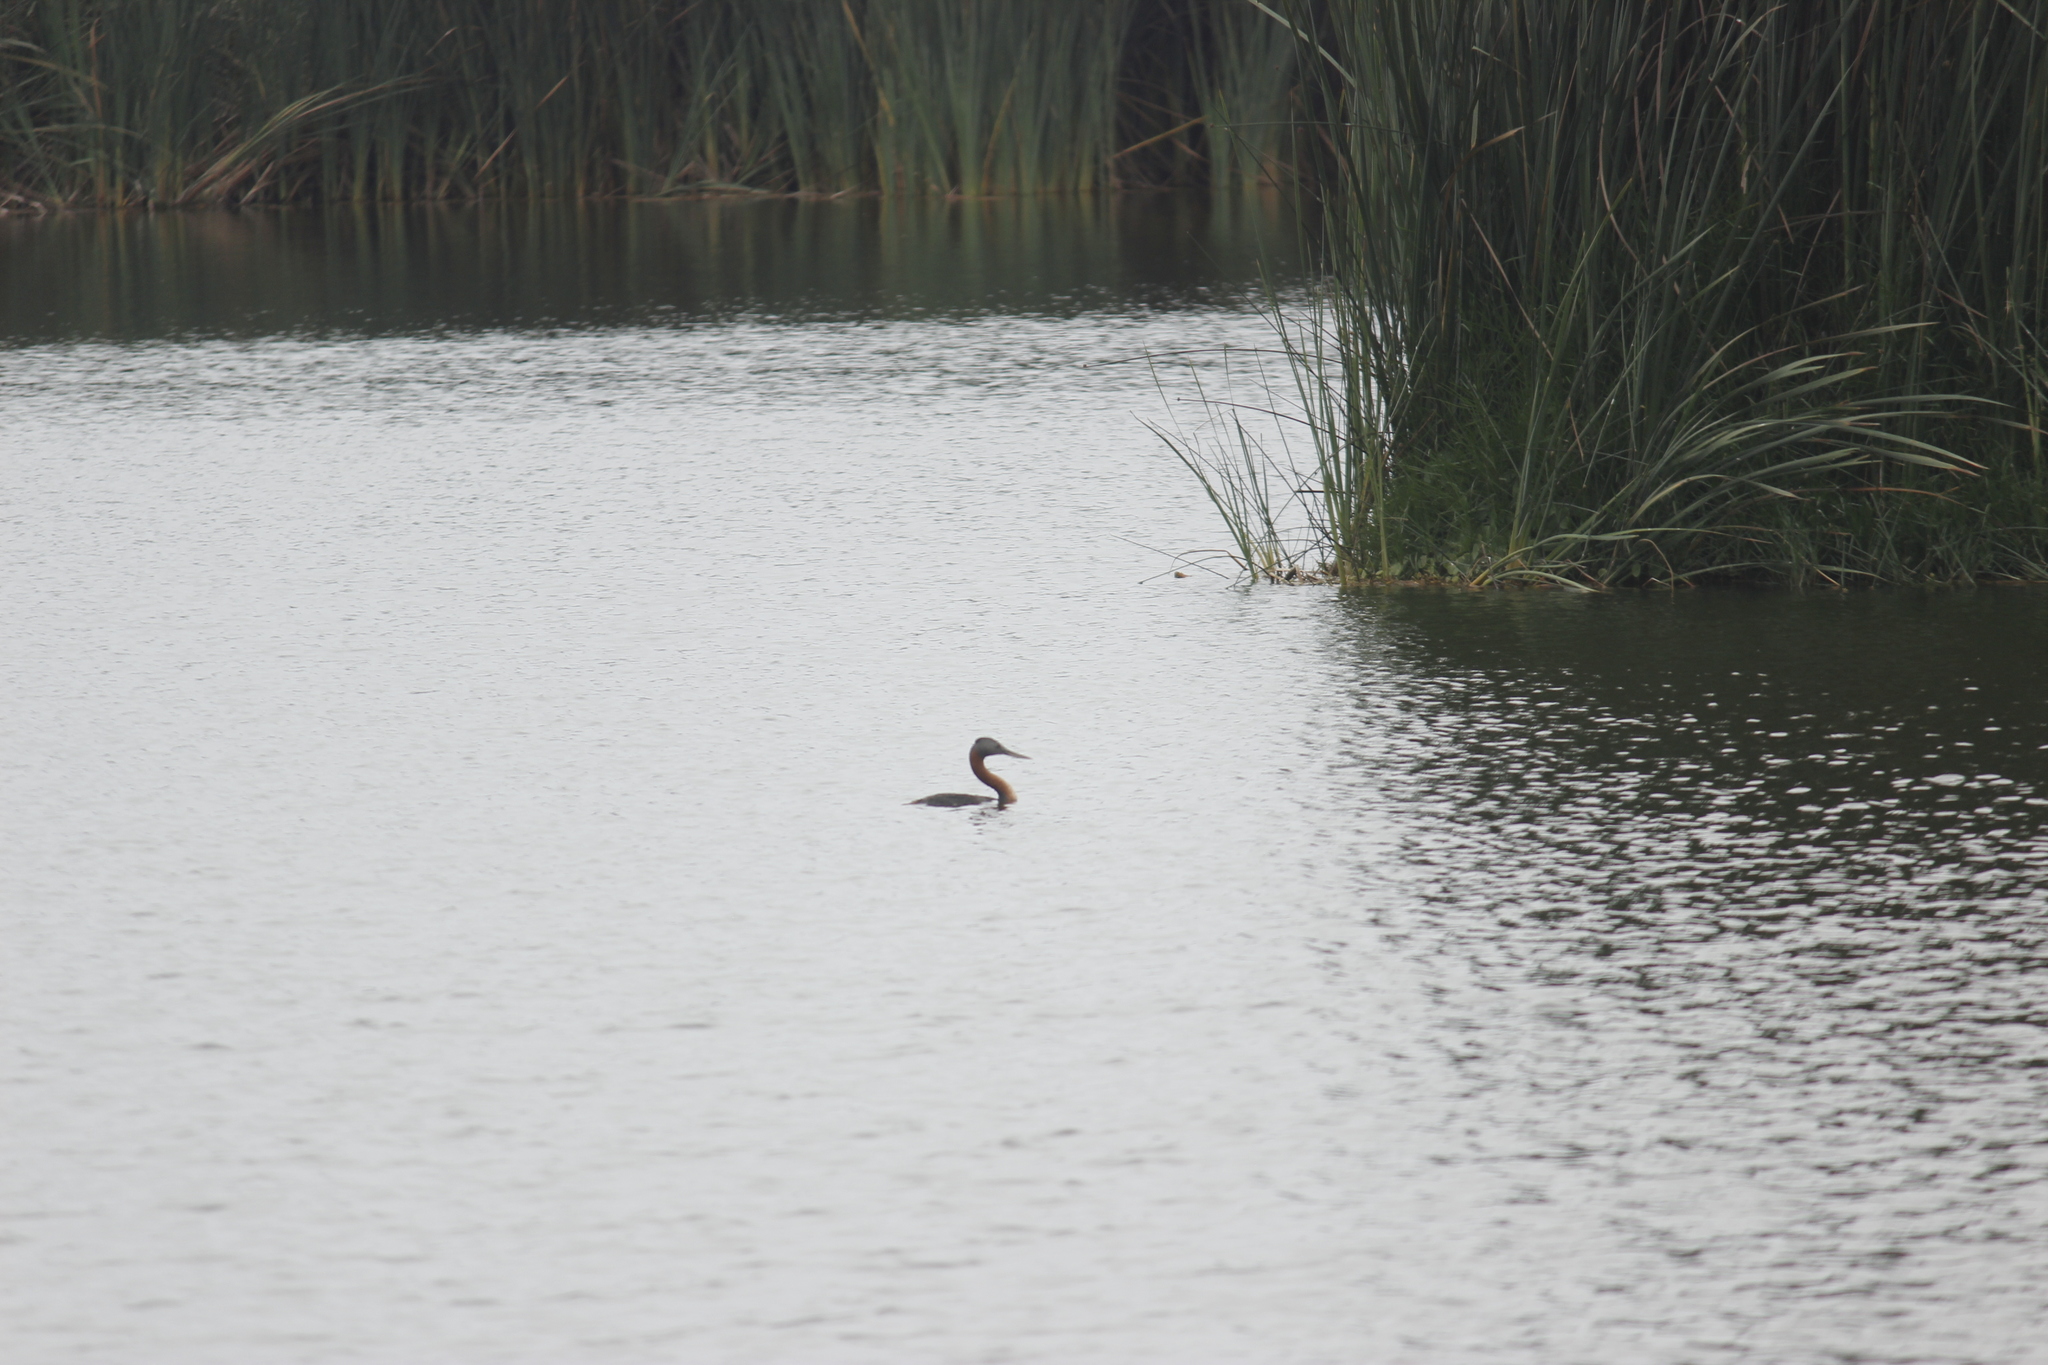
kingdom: Animalia
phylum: Chordata
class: Aves
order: Podicipediformes
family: Podicipedidae
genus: Podiceps
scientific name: Podiceps major
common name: Great grebe
